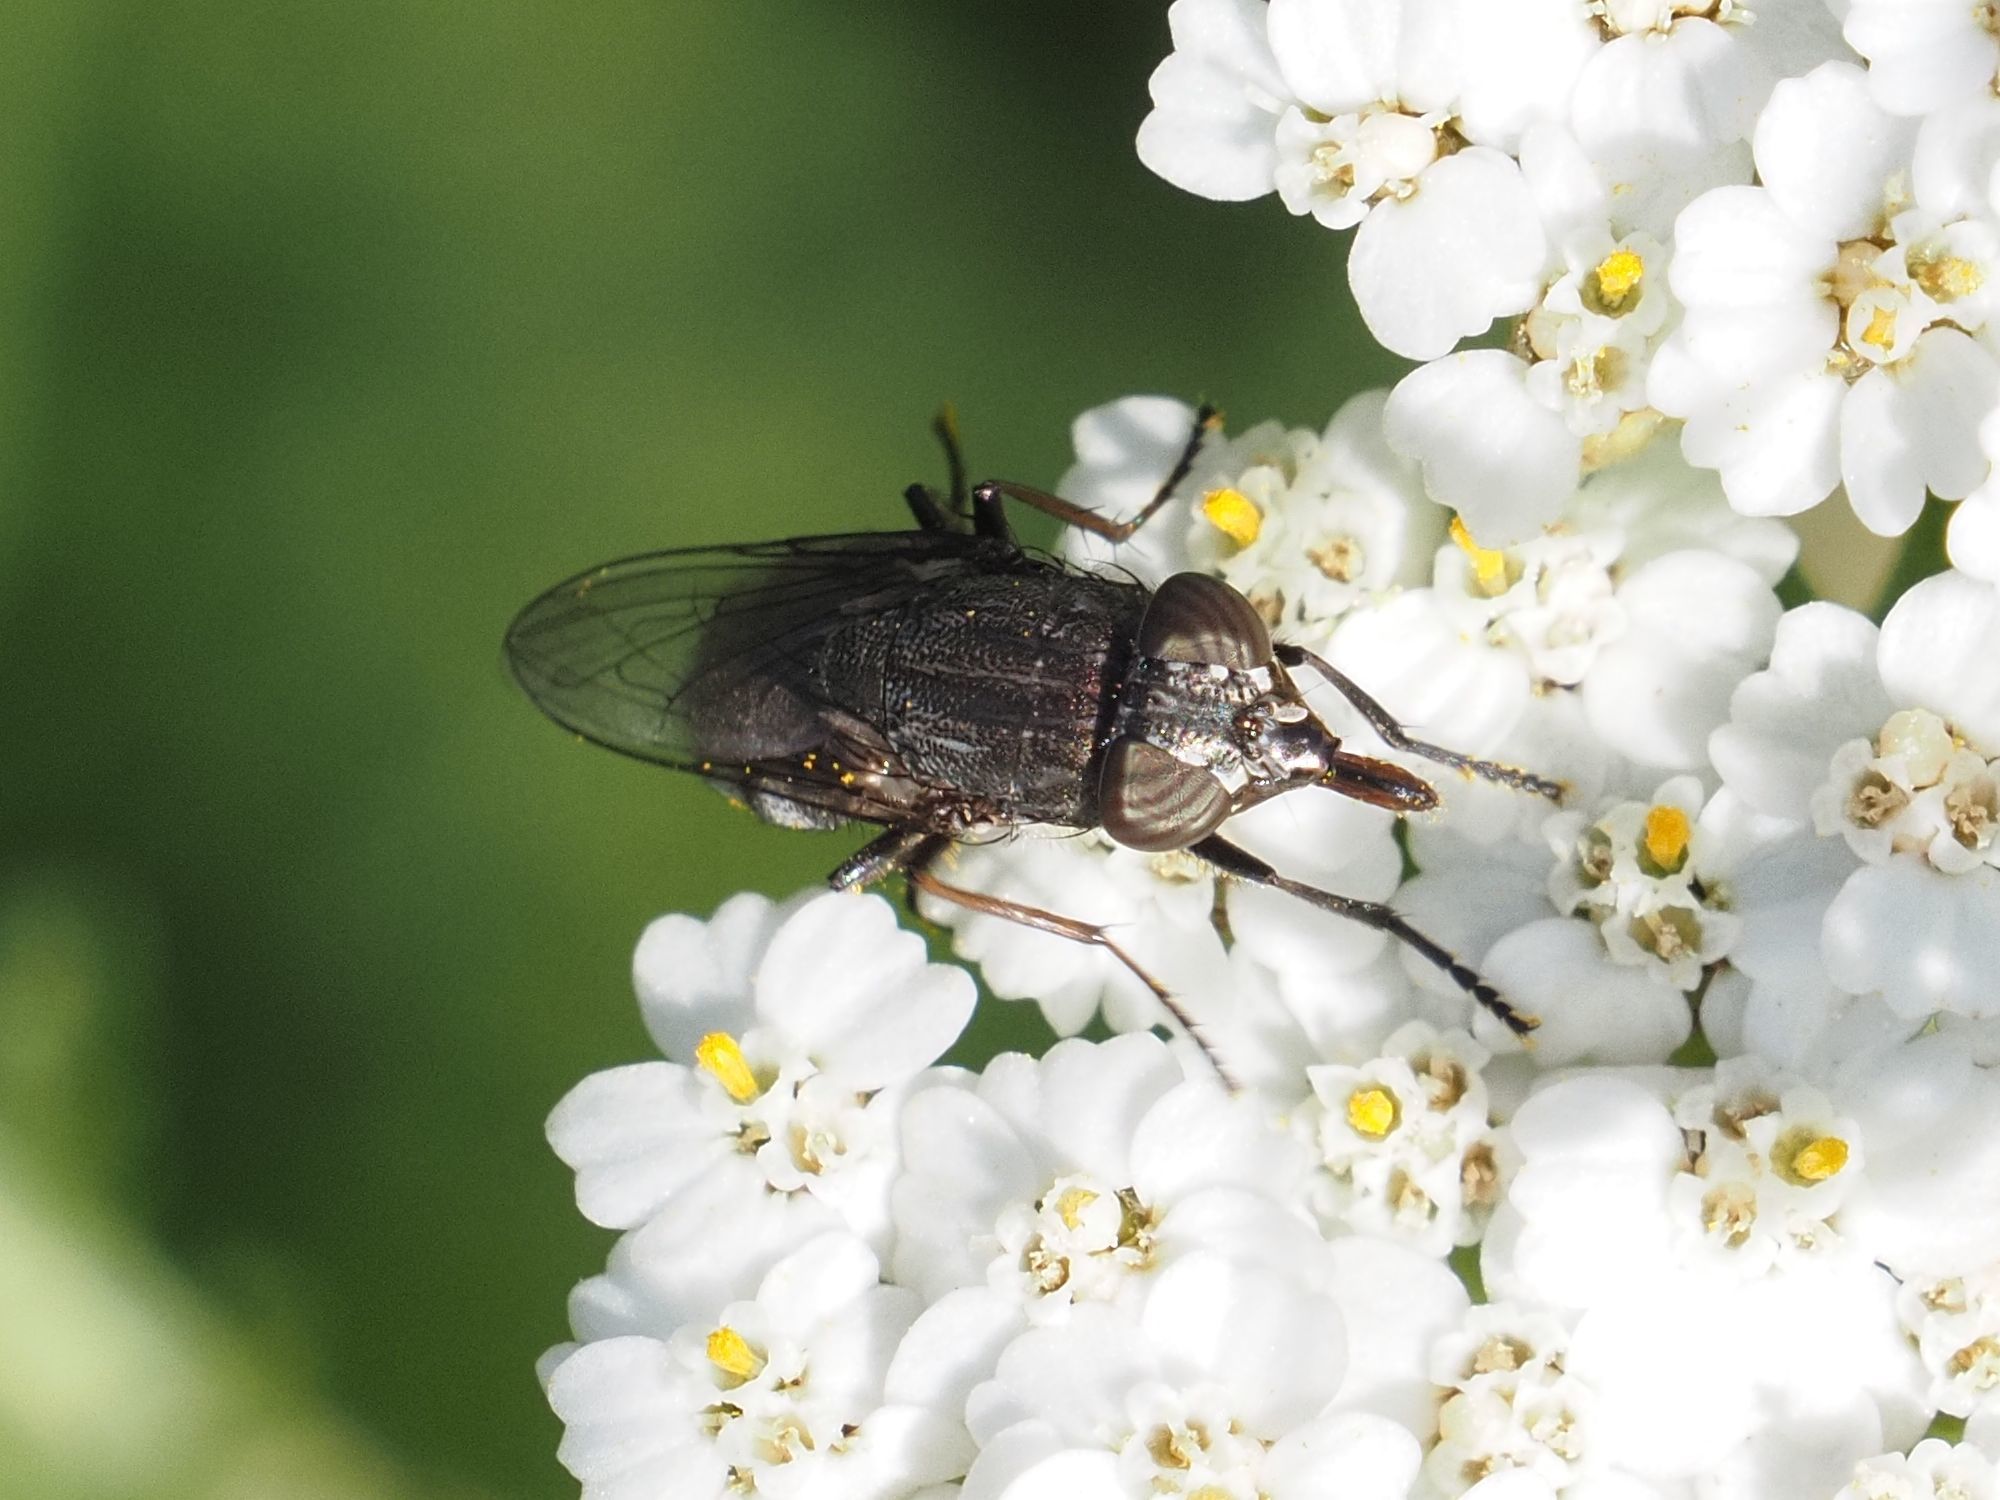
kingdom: Animalia
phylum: Arthropoda
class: Insecta
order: Diptera
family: Calliphoridae
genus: Stomorhina
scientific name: Stomorhina lunata
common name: Locust blowfly
